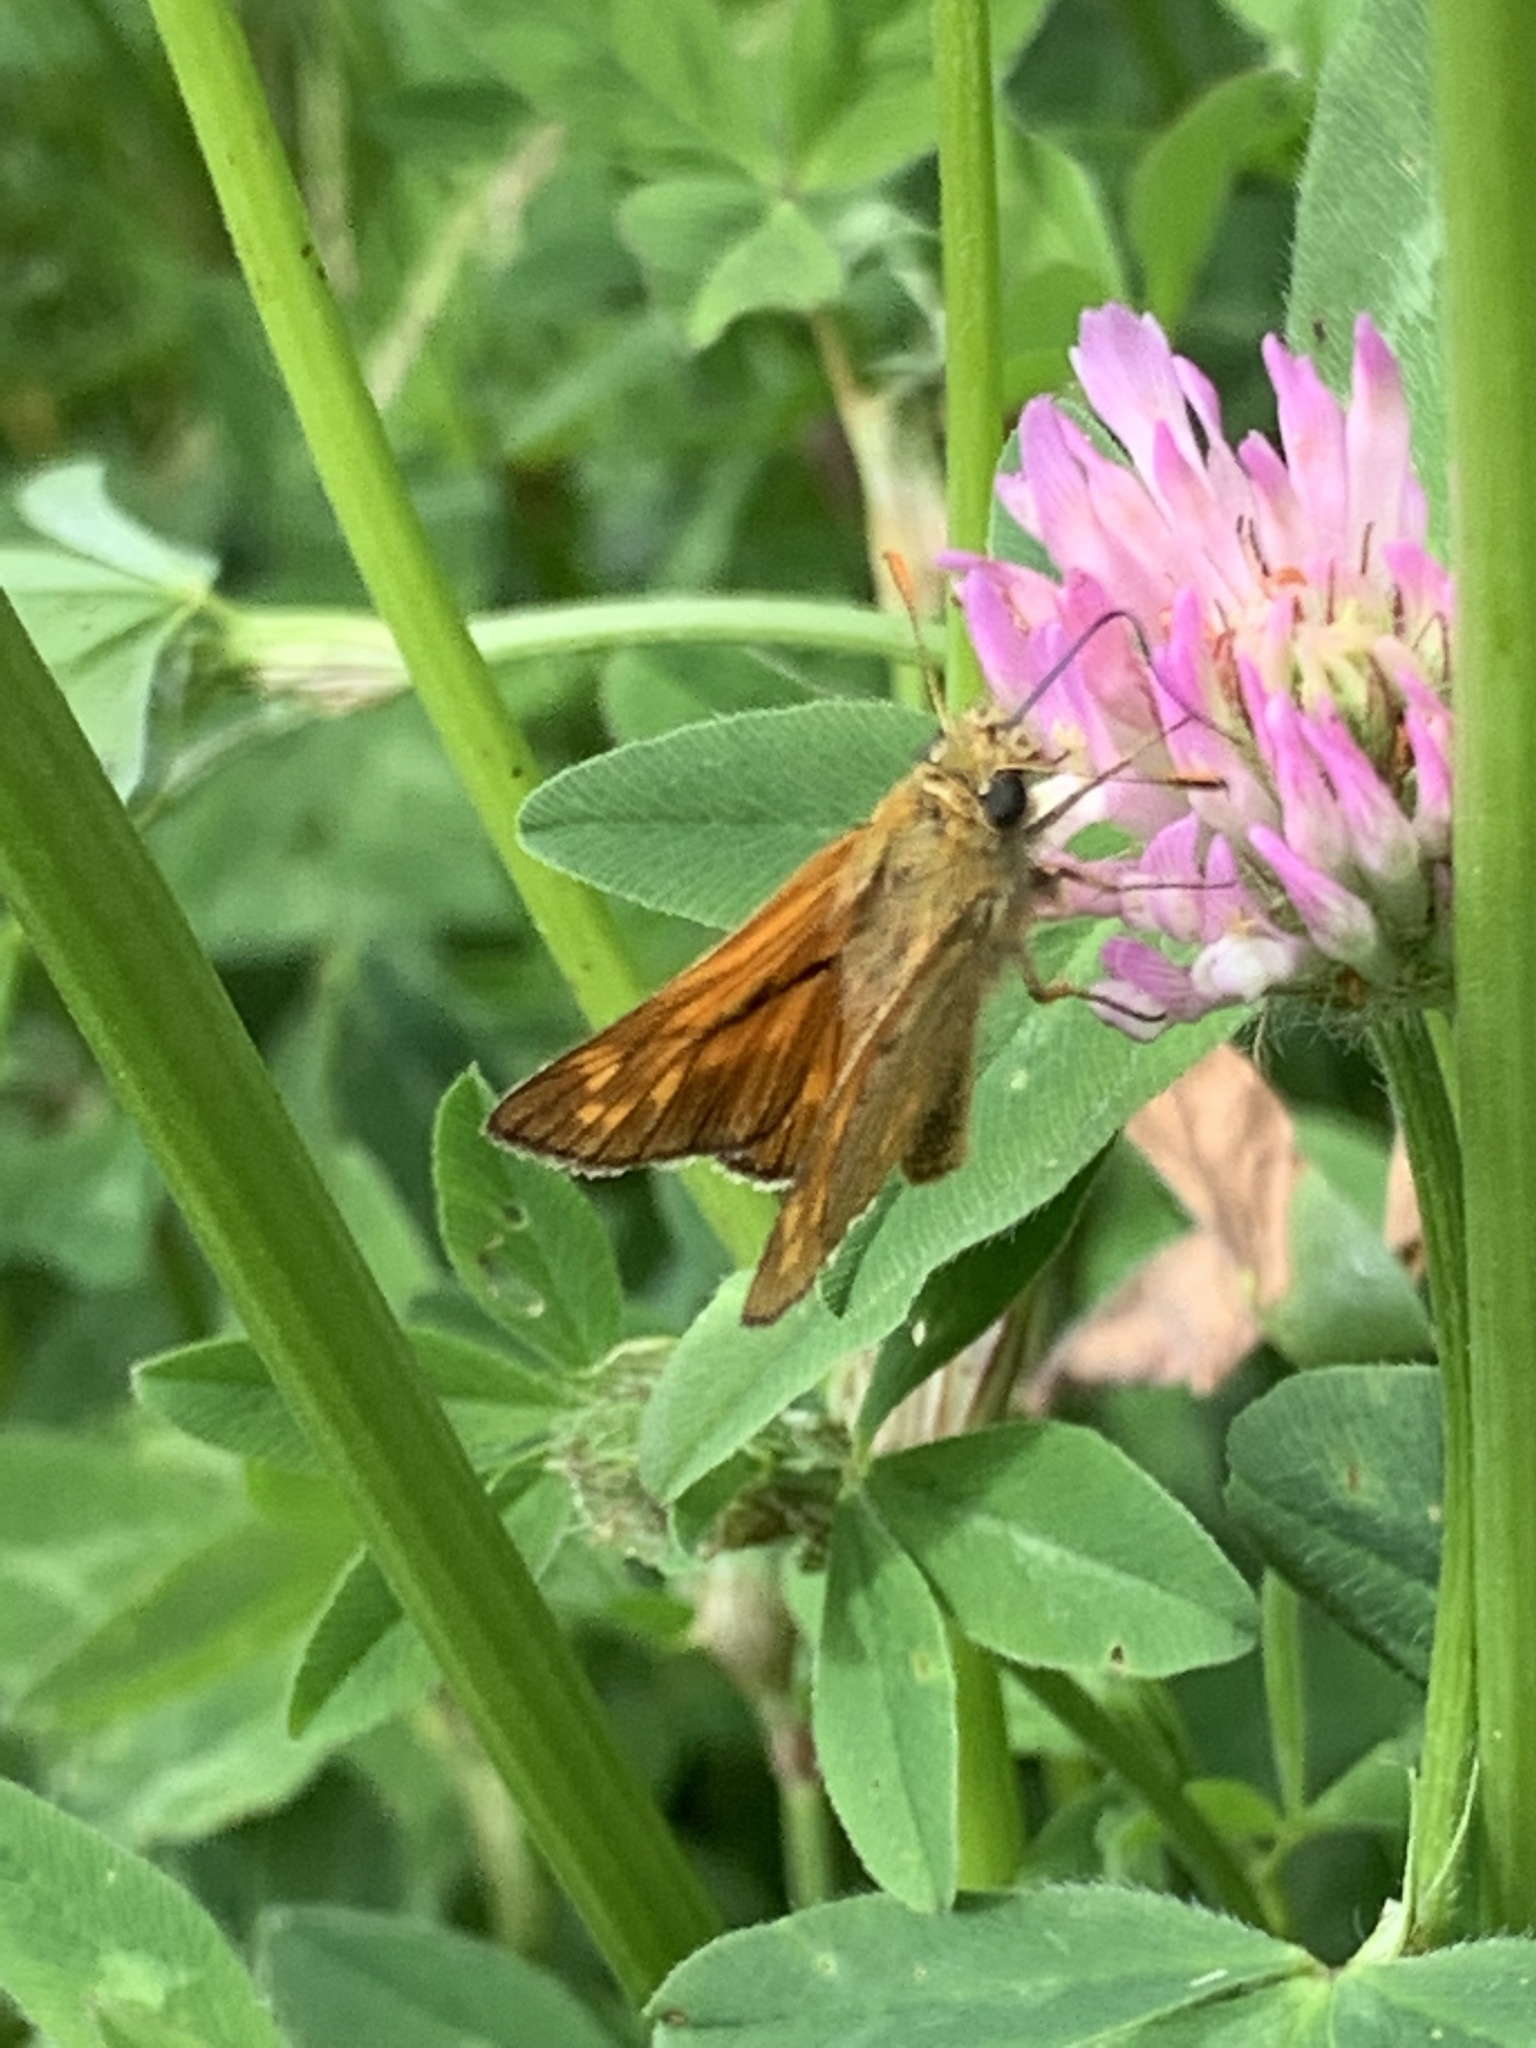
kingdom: Animalia
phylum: Arthropoda
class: Insecta
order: Lepidoptera
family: Hesperiidae
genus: Ochlodes
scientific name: Ochlodes venata
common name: Large skipper
